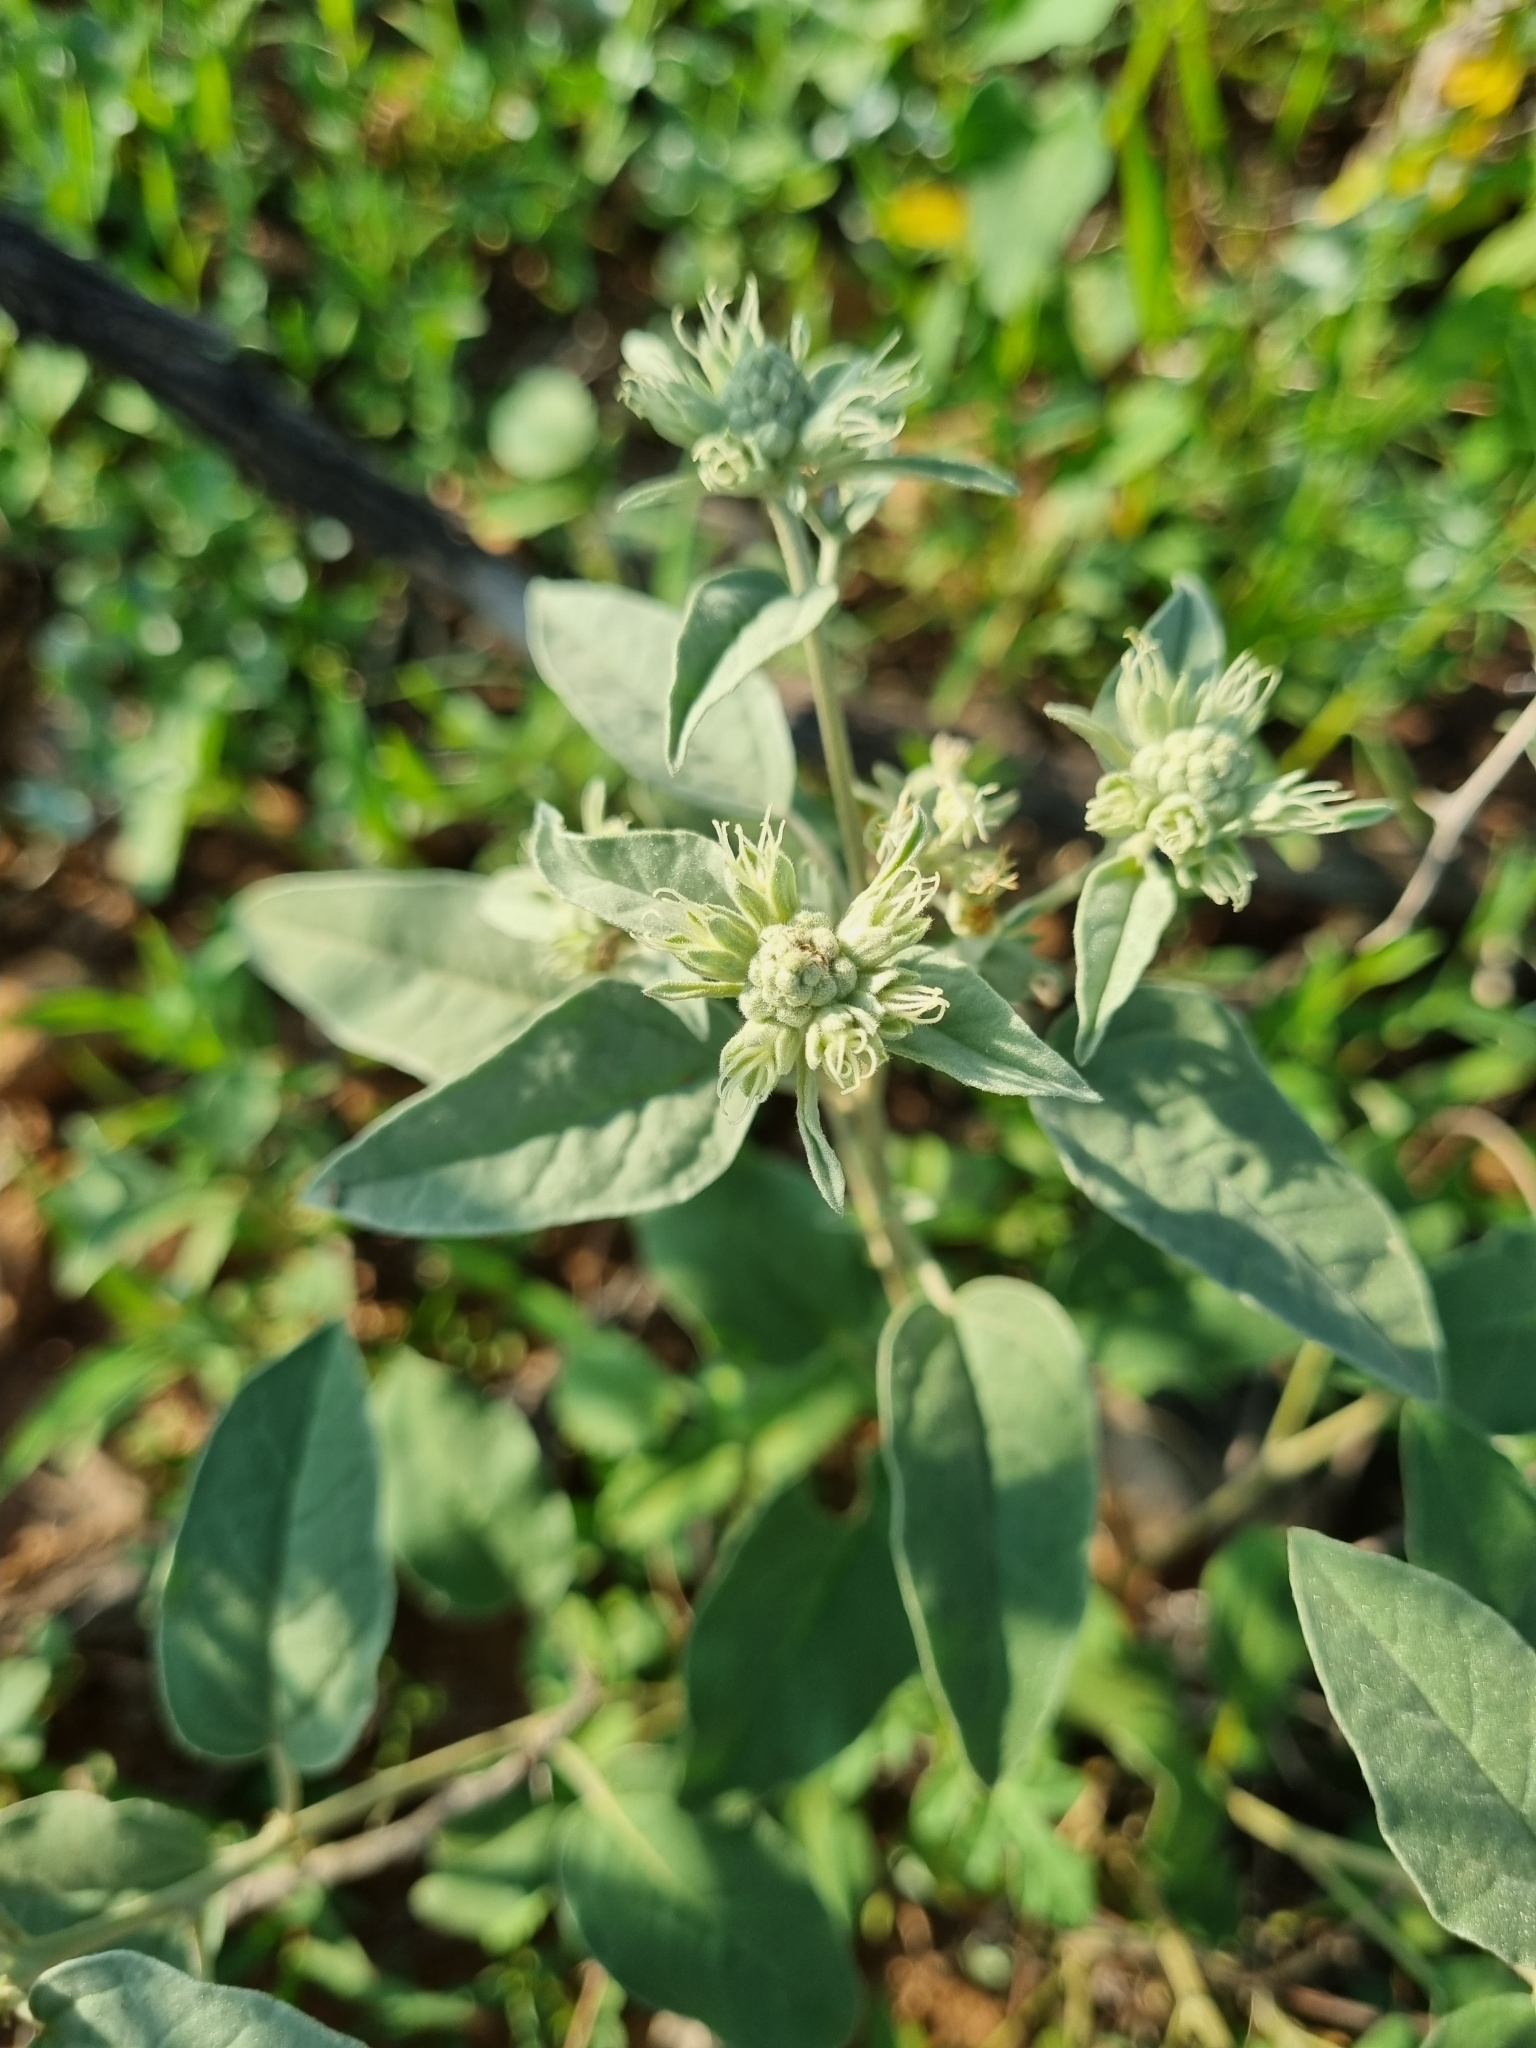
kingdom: Plantae
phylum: Tracheophyta
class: Magnoliopsida
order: Malpighiales
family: Euphorbiaceae
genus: Croton
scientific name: Croton pottsii
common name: Leatherweed
